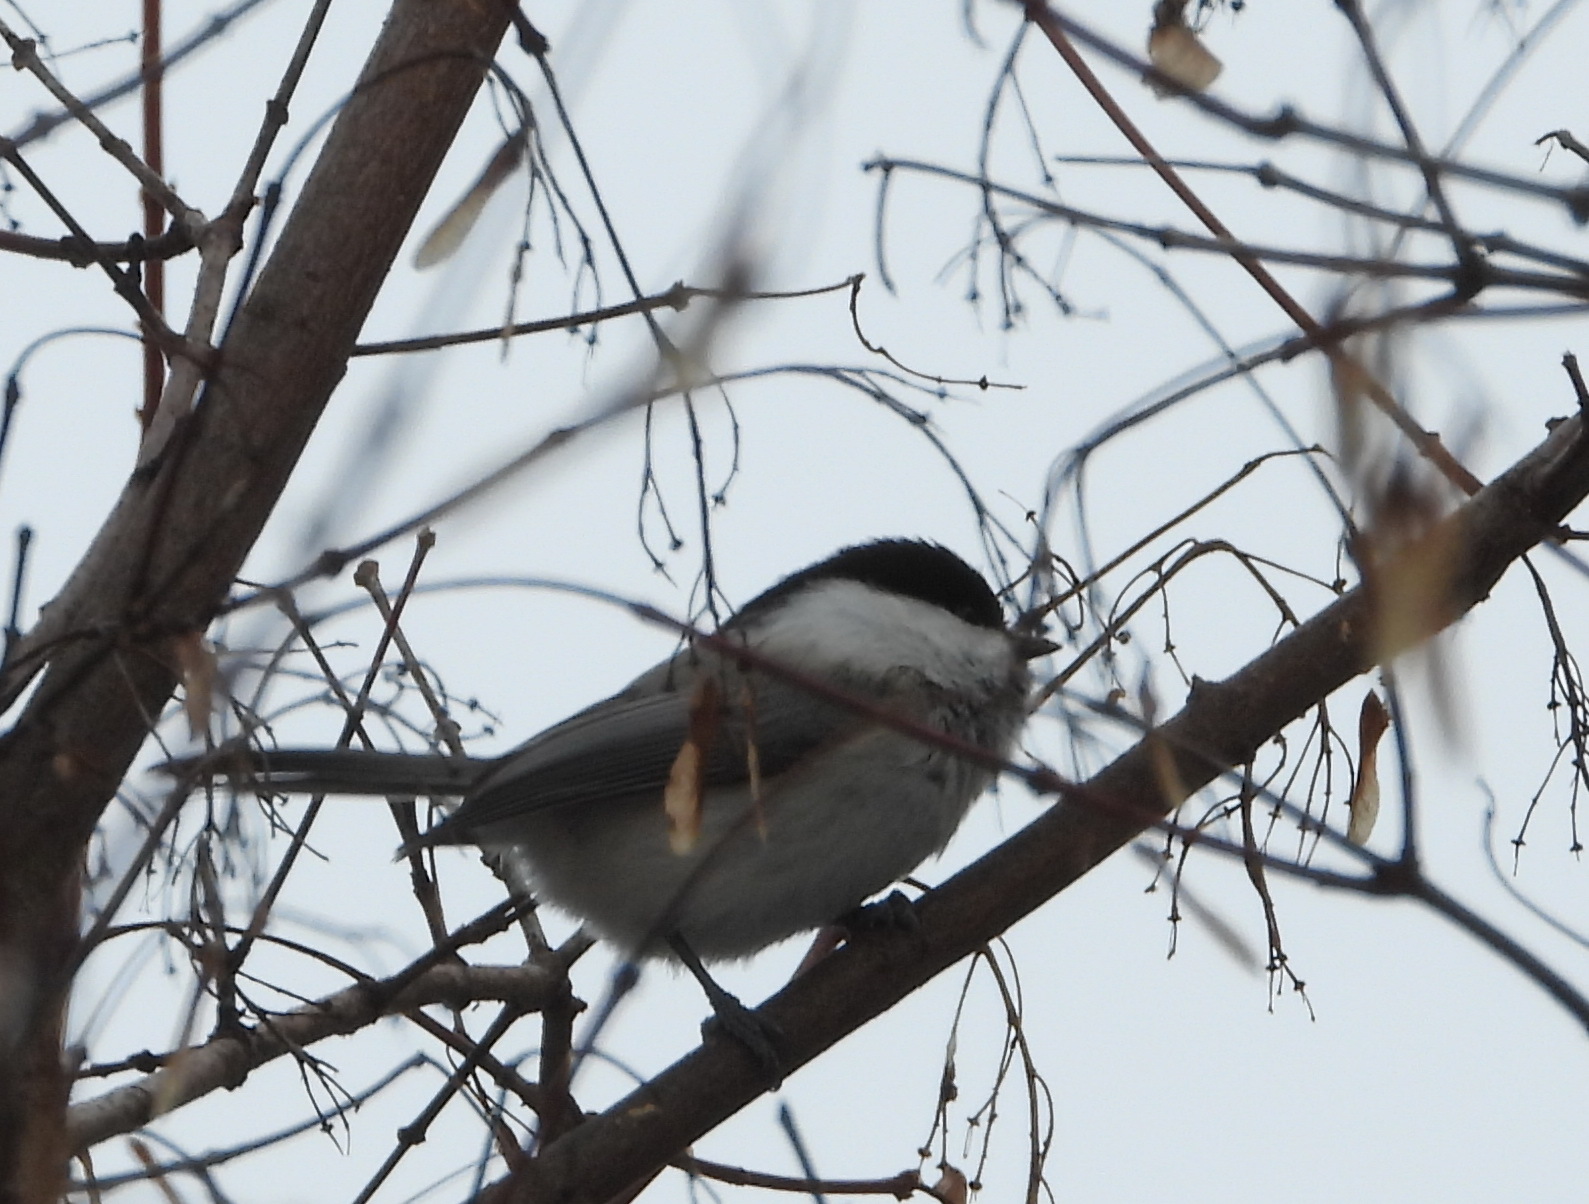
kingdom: Animalia
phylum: Chordata
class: Aves
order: Passeriformes
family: Paridae
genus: Poecile
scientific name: Poecile montanus
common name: Willow tit
